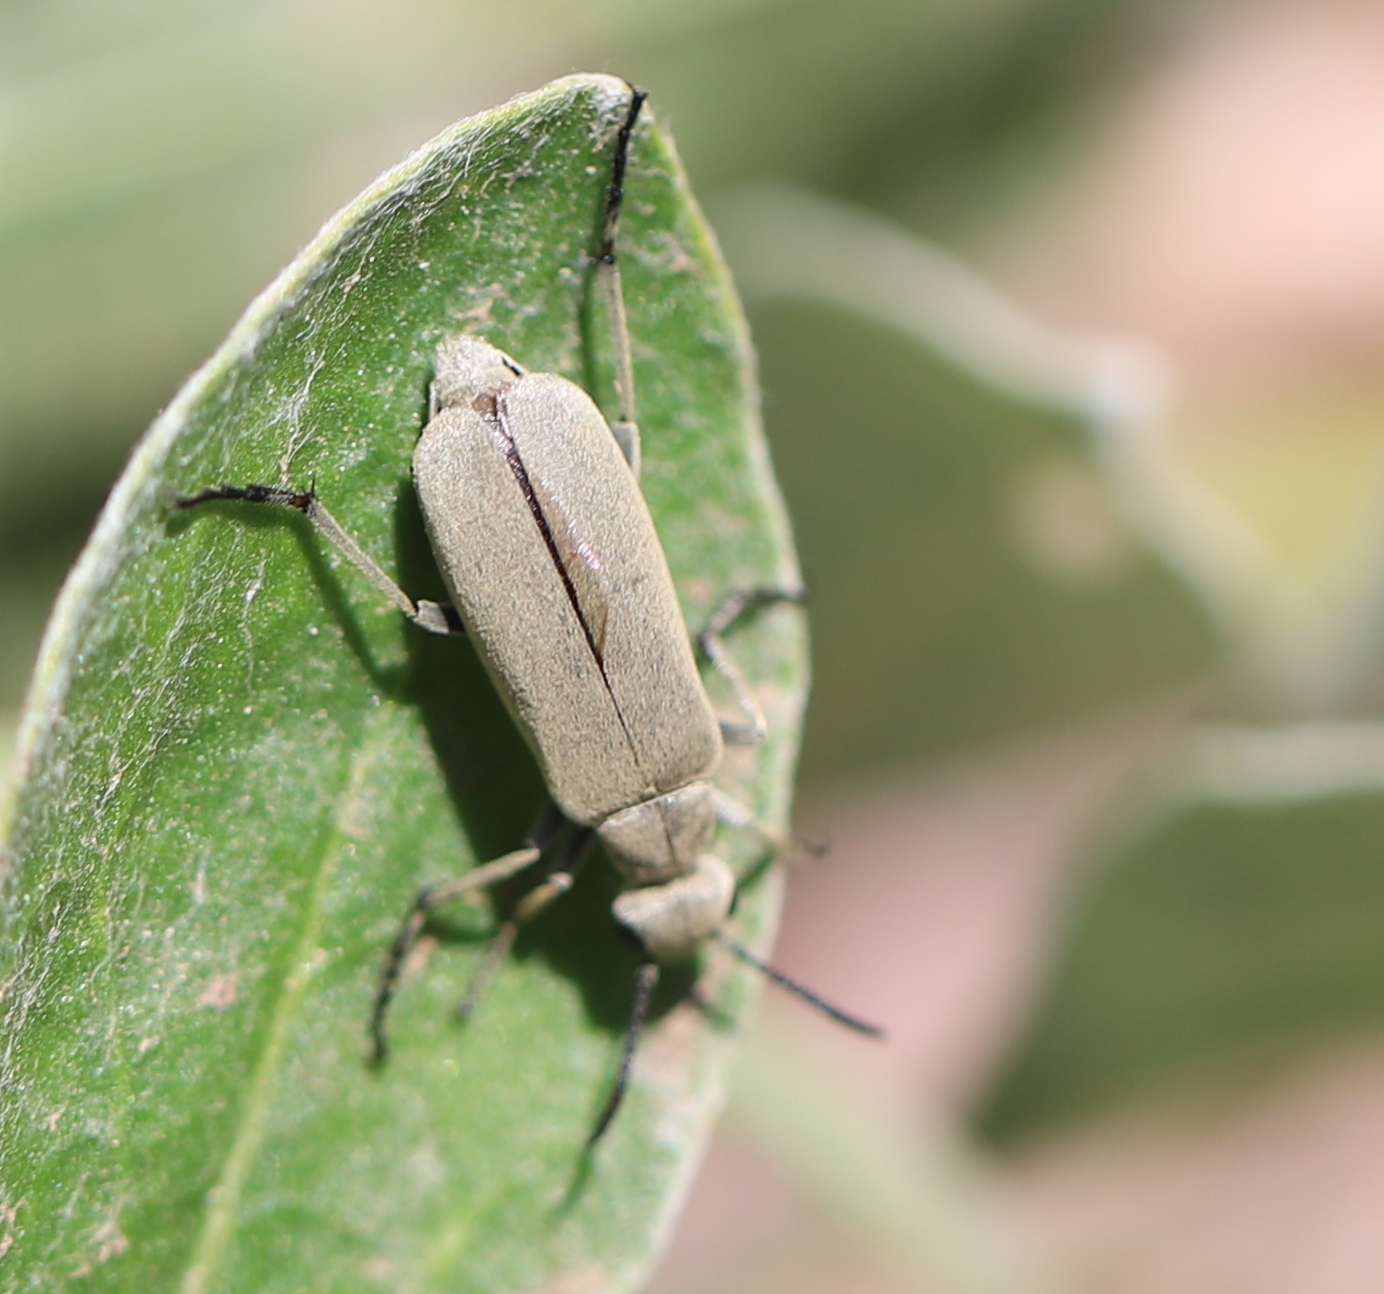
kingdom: Animalia
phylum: Arthropoda
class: Insecta
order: Coleoptera
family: Meloidae
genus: Epicauta
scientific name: Epicauta sericans
